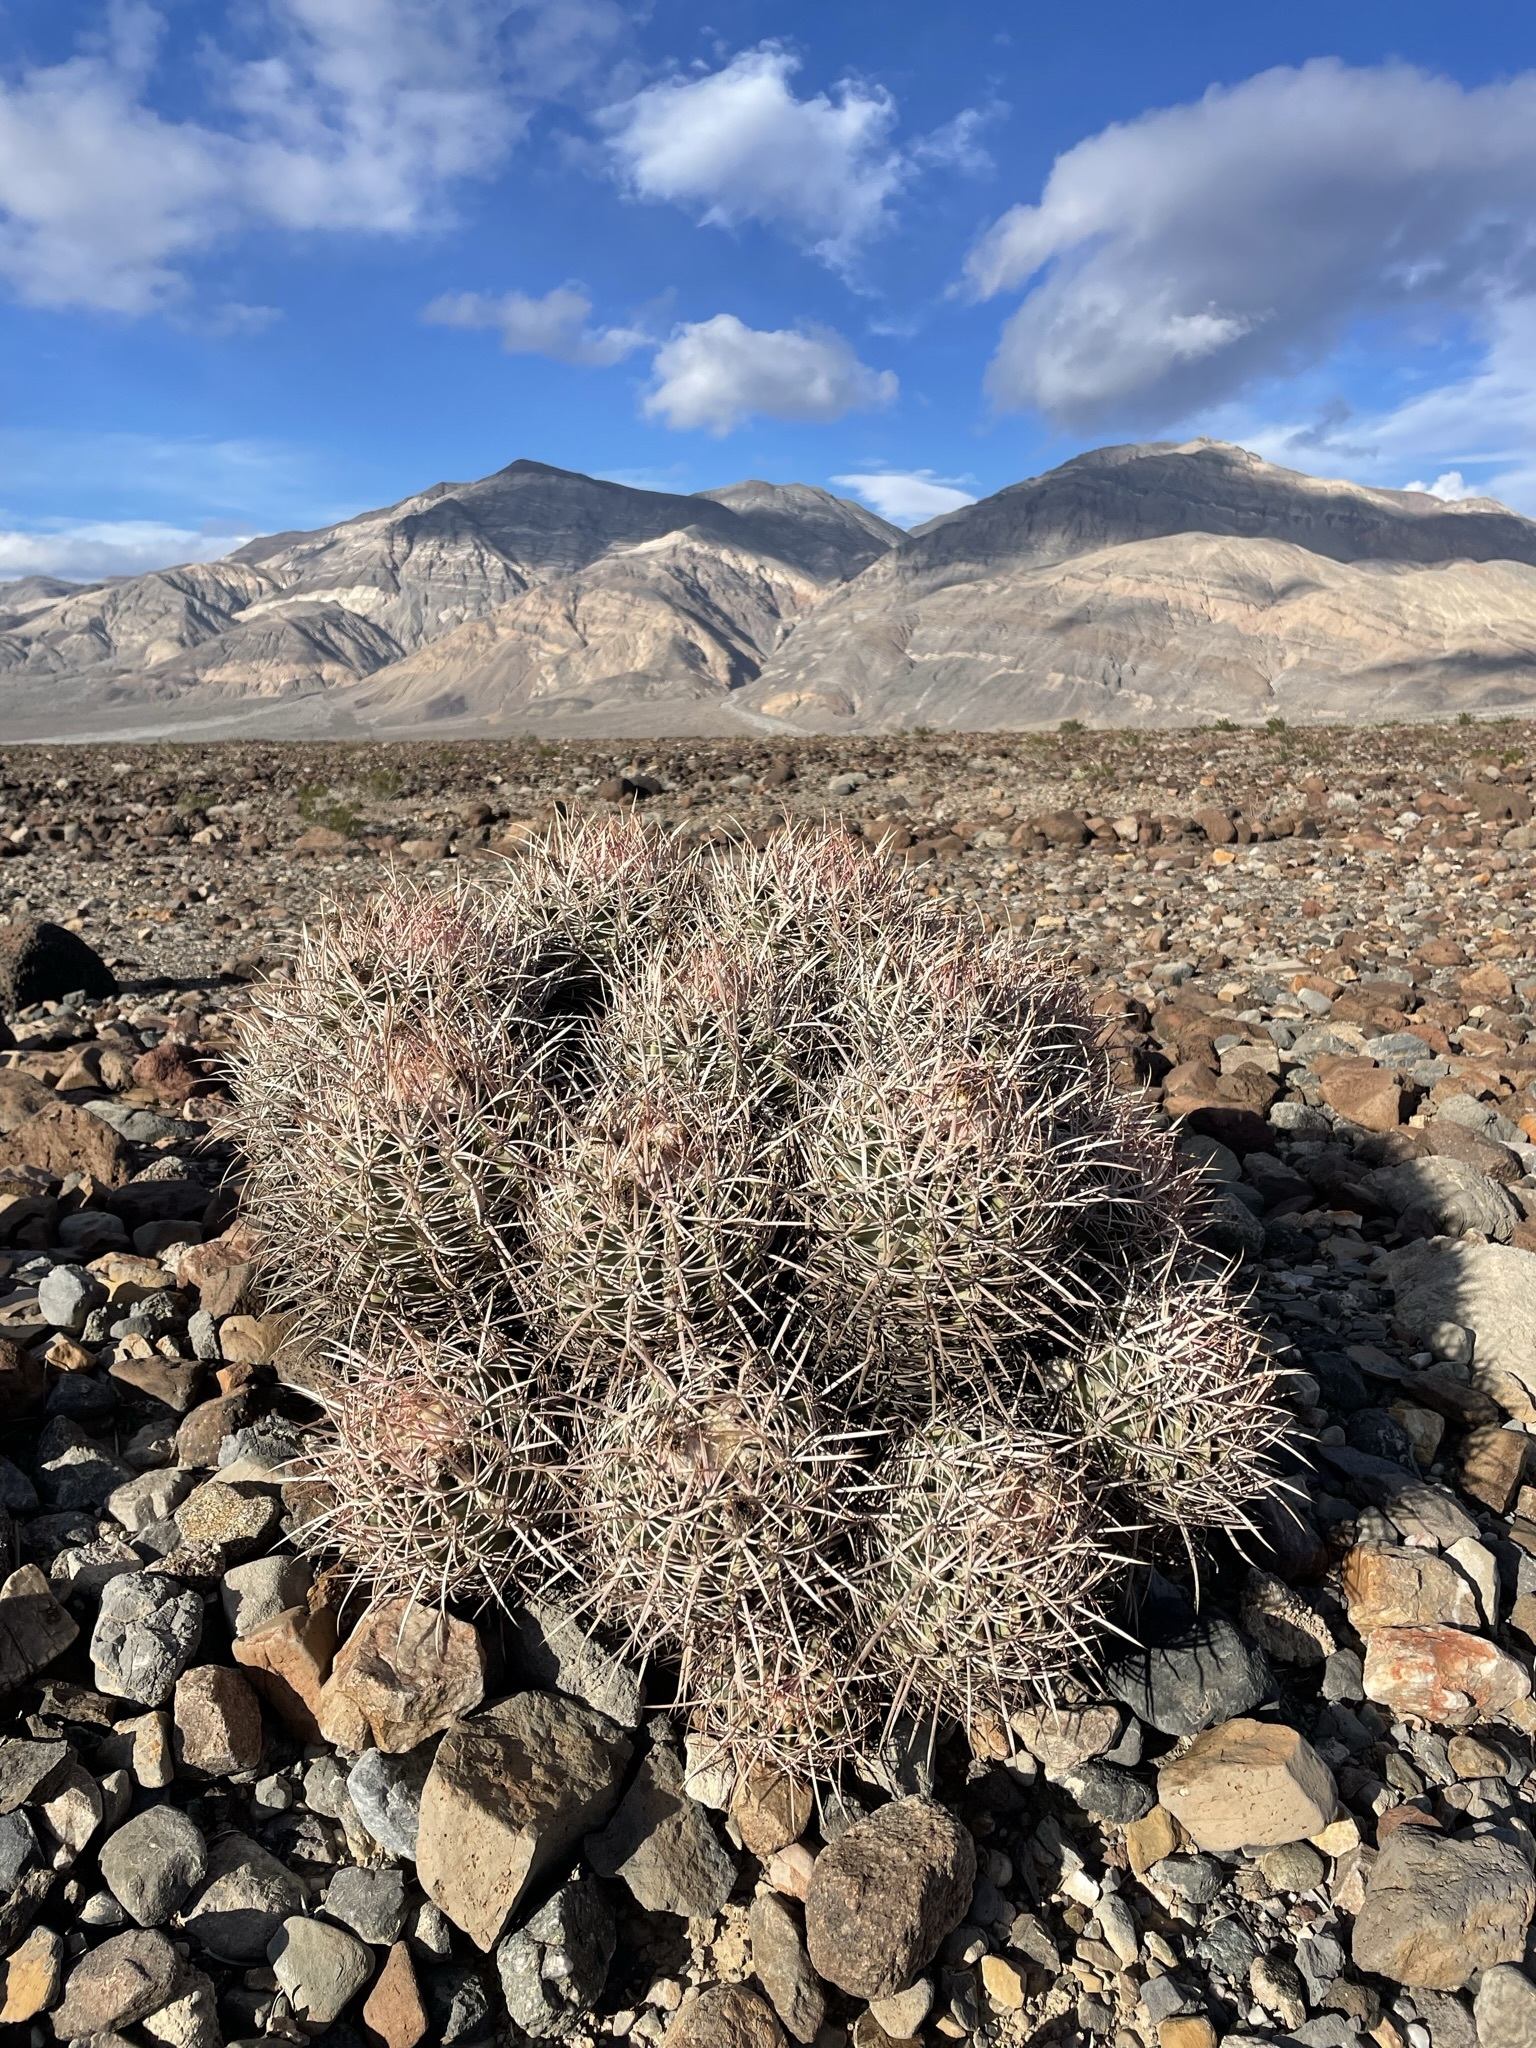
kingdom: Plantae
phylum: Tracheophyta
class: Magnoliopsida
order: Caryophyllales
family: Cactaceae
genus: Echinocactus
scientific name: Echinocactus polycephalus
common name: Cottontop cactus
